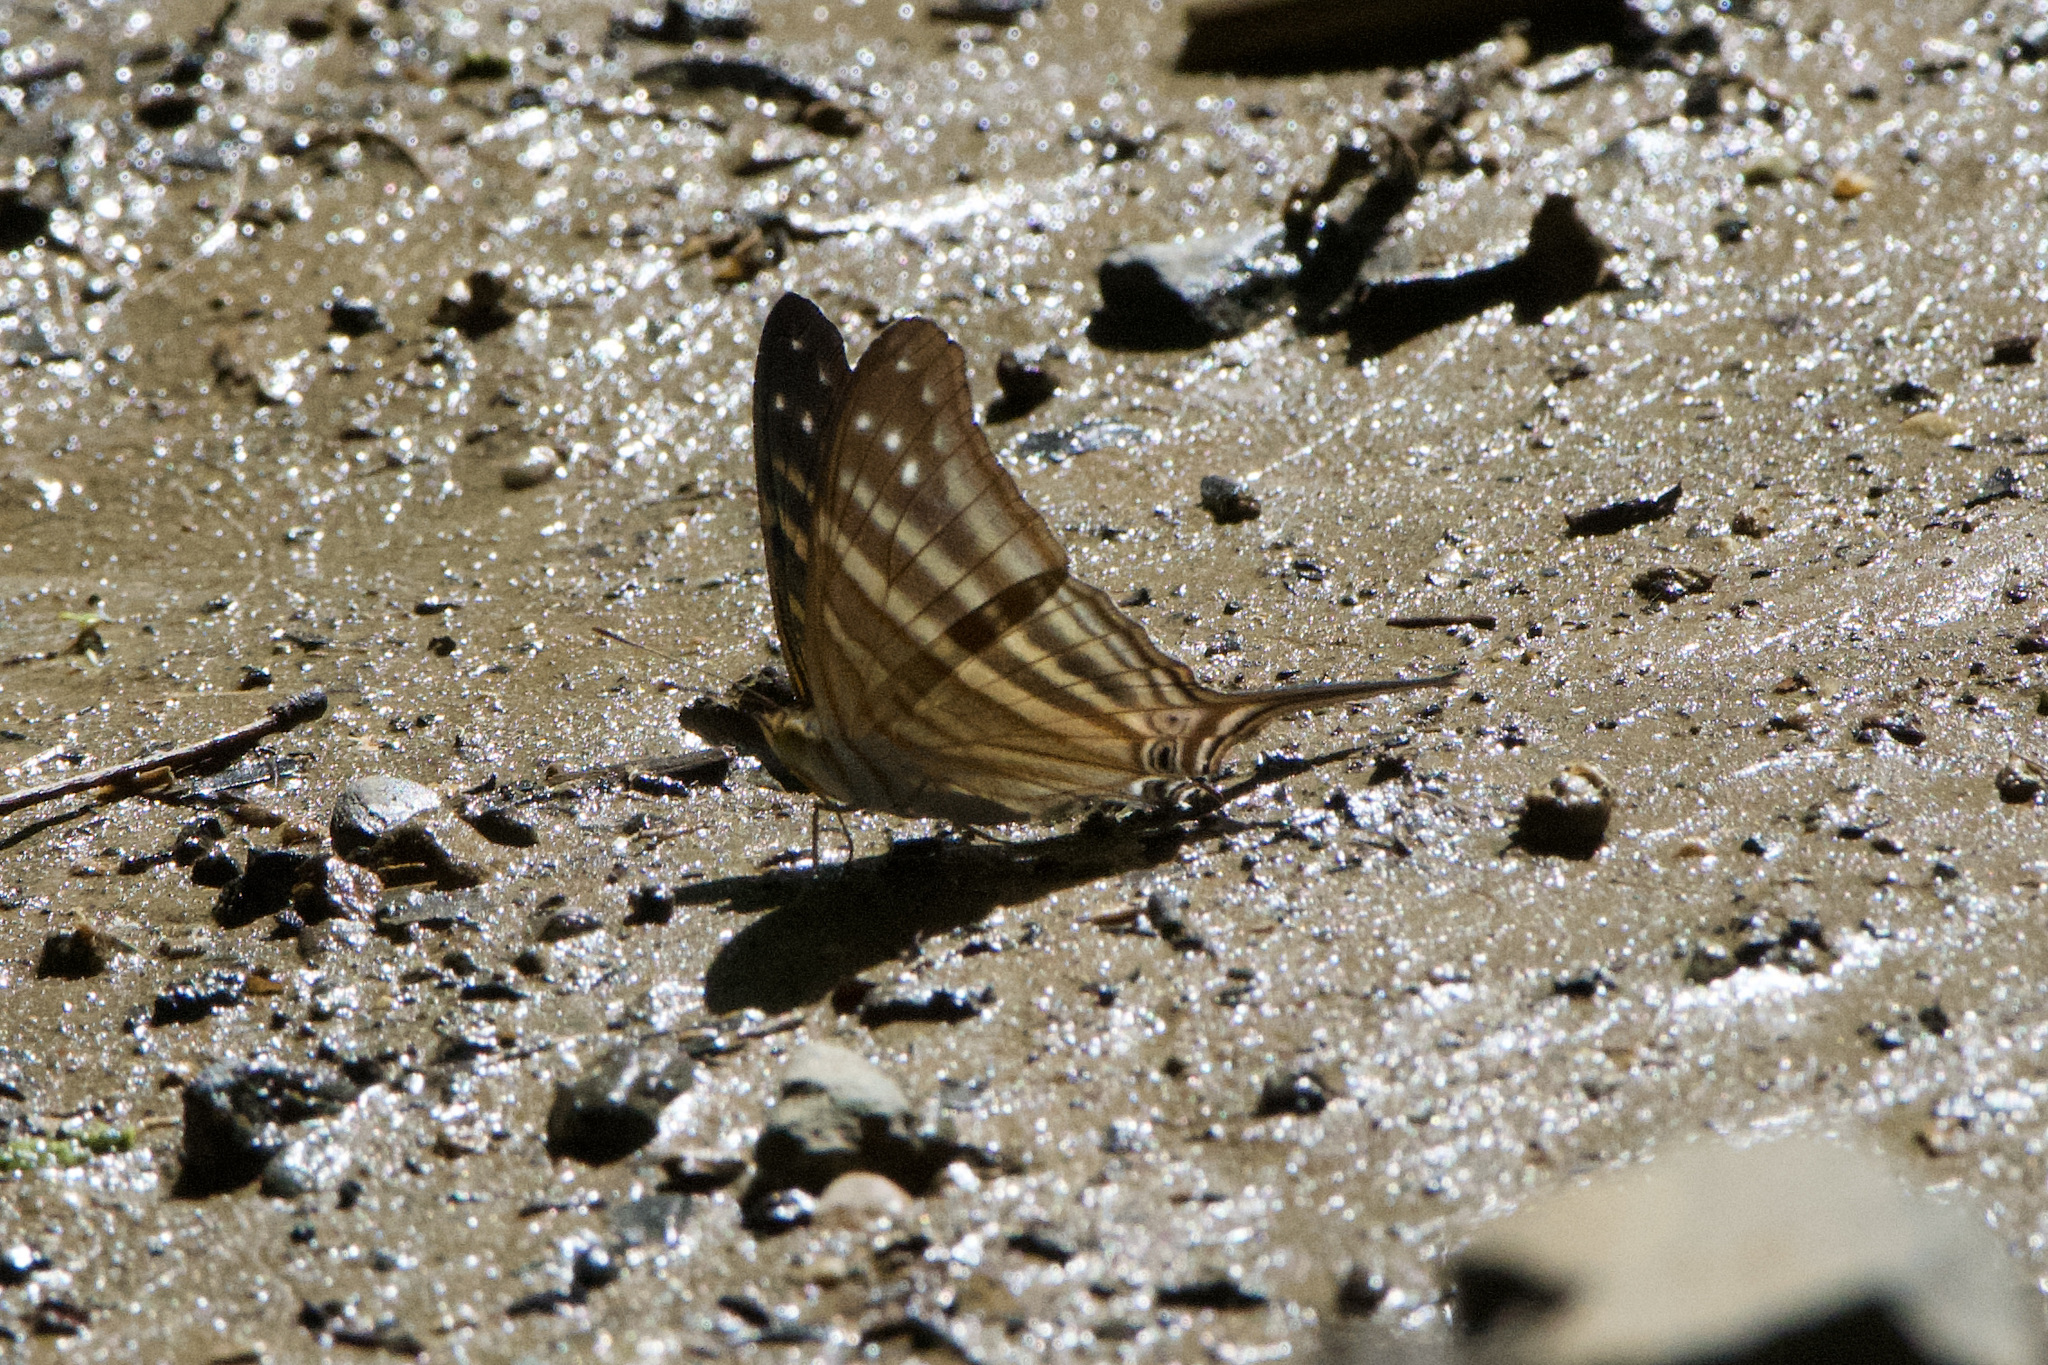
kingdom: Animalia
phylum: Arthropoda
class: Insecta
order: Lepidoptera
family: Nymphalidae
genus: Marpesia
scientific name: Marpesia chiron
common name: Many-banded daggerwing
